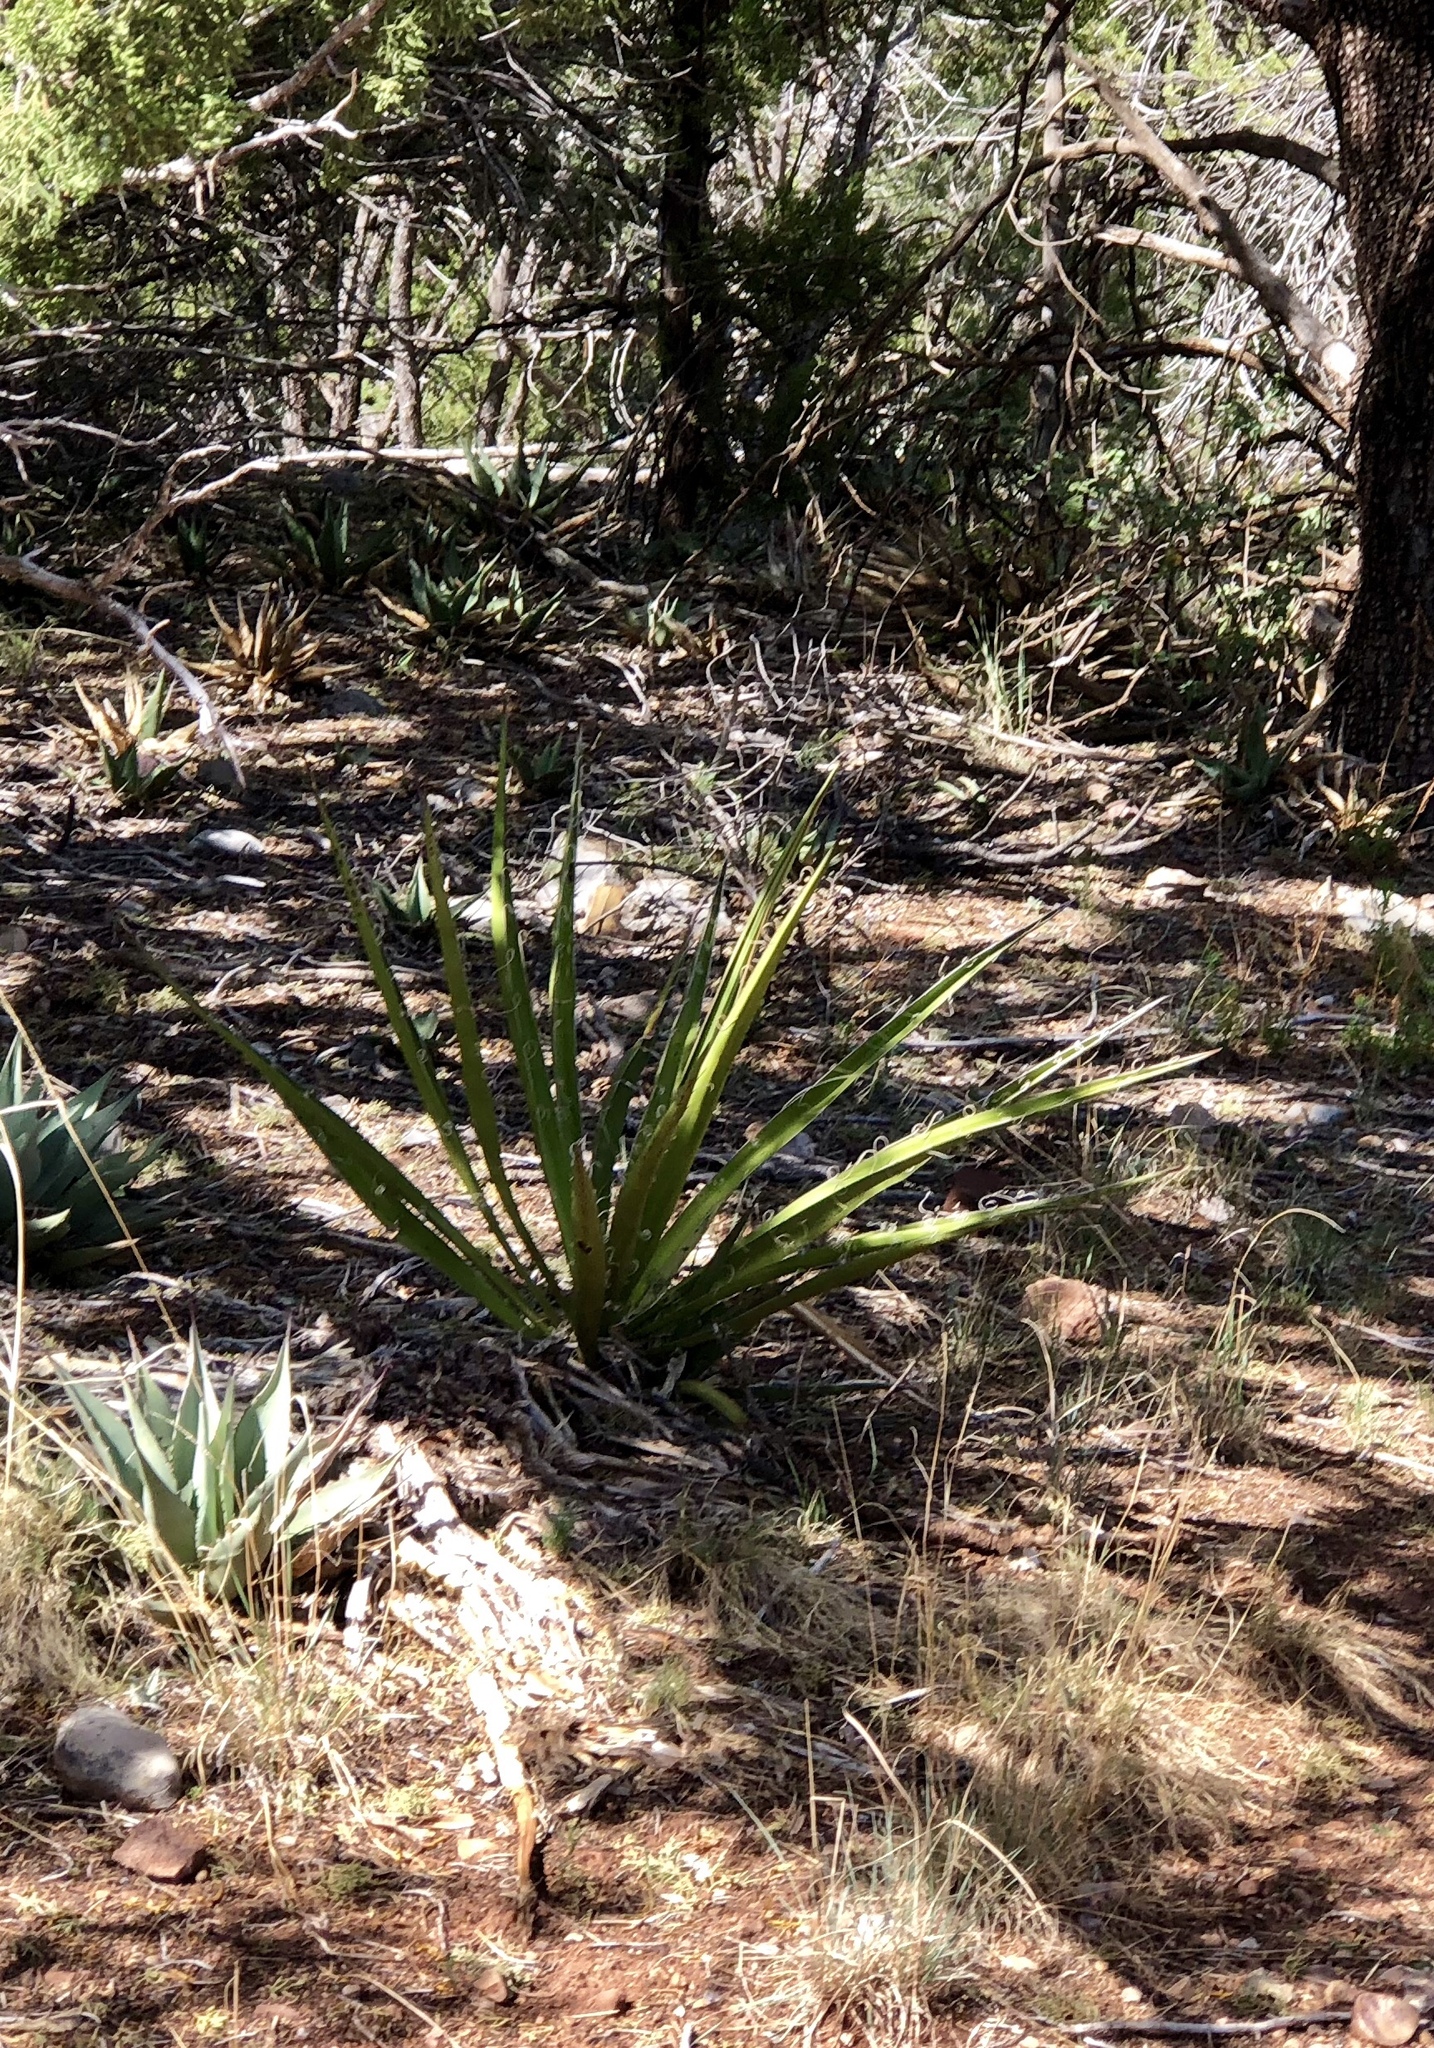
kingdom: Plantae
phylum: Tracheophyta
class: Liliopsida
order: Asparagales
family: Asparagaceae
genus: Yucca
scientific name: Yucca baccata
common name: Banana yucca
